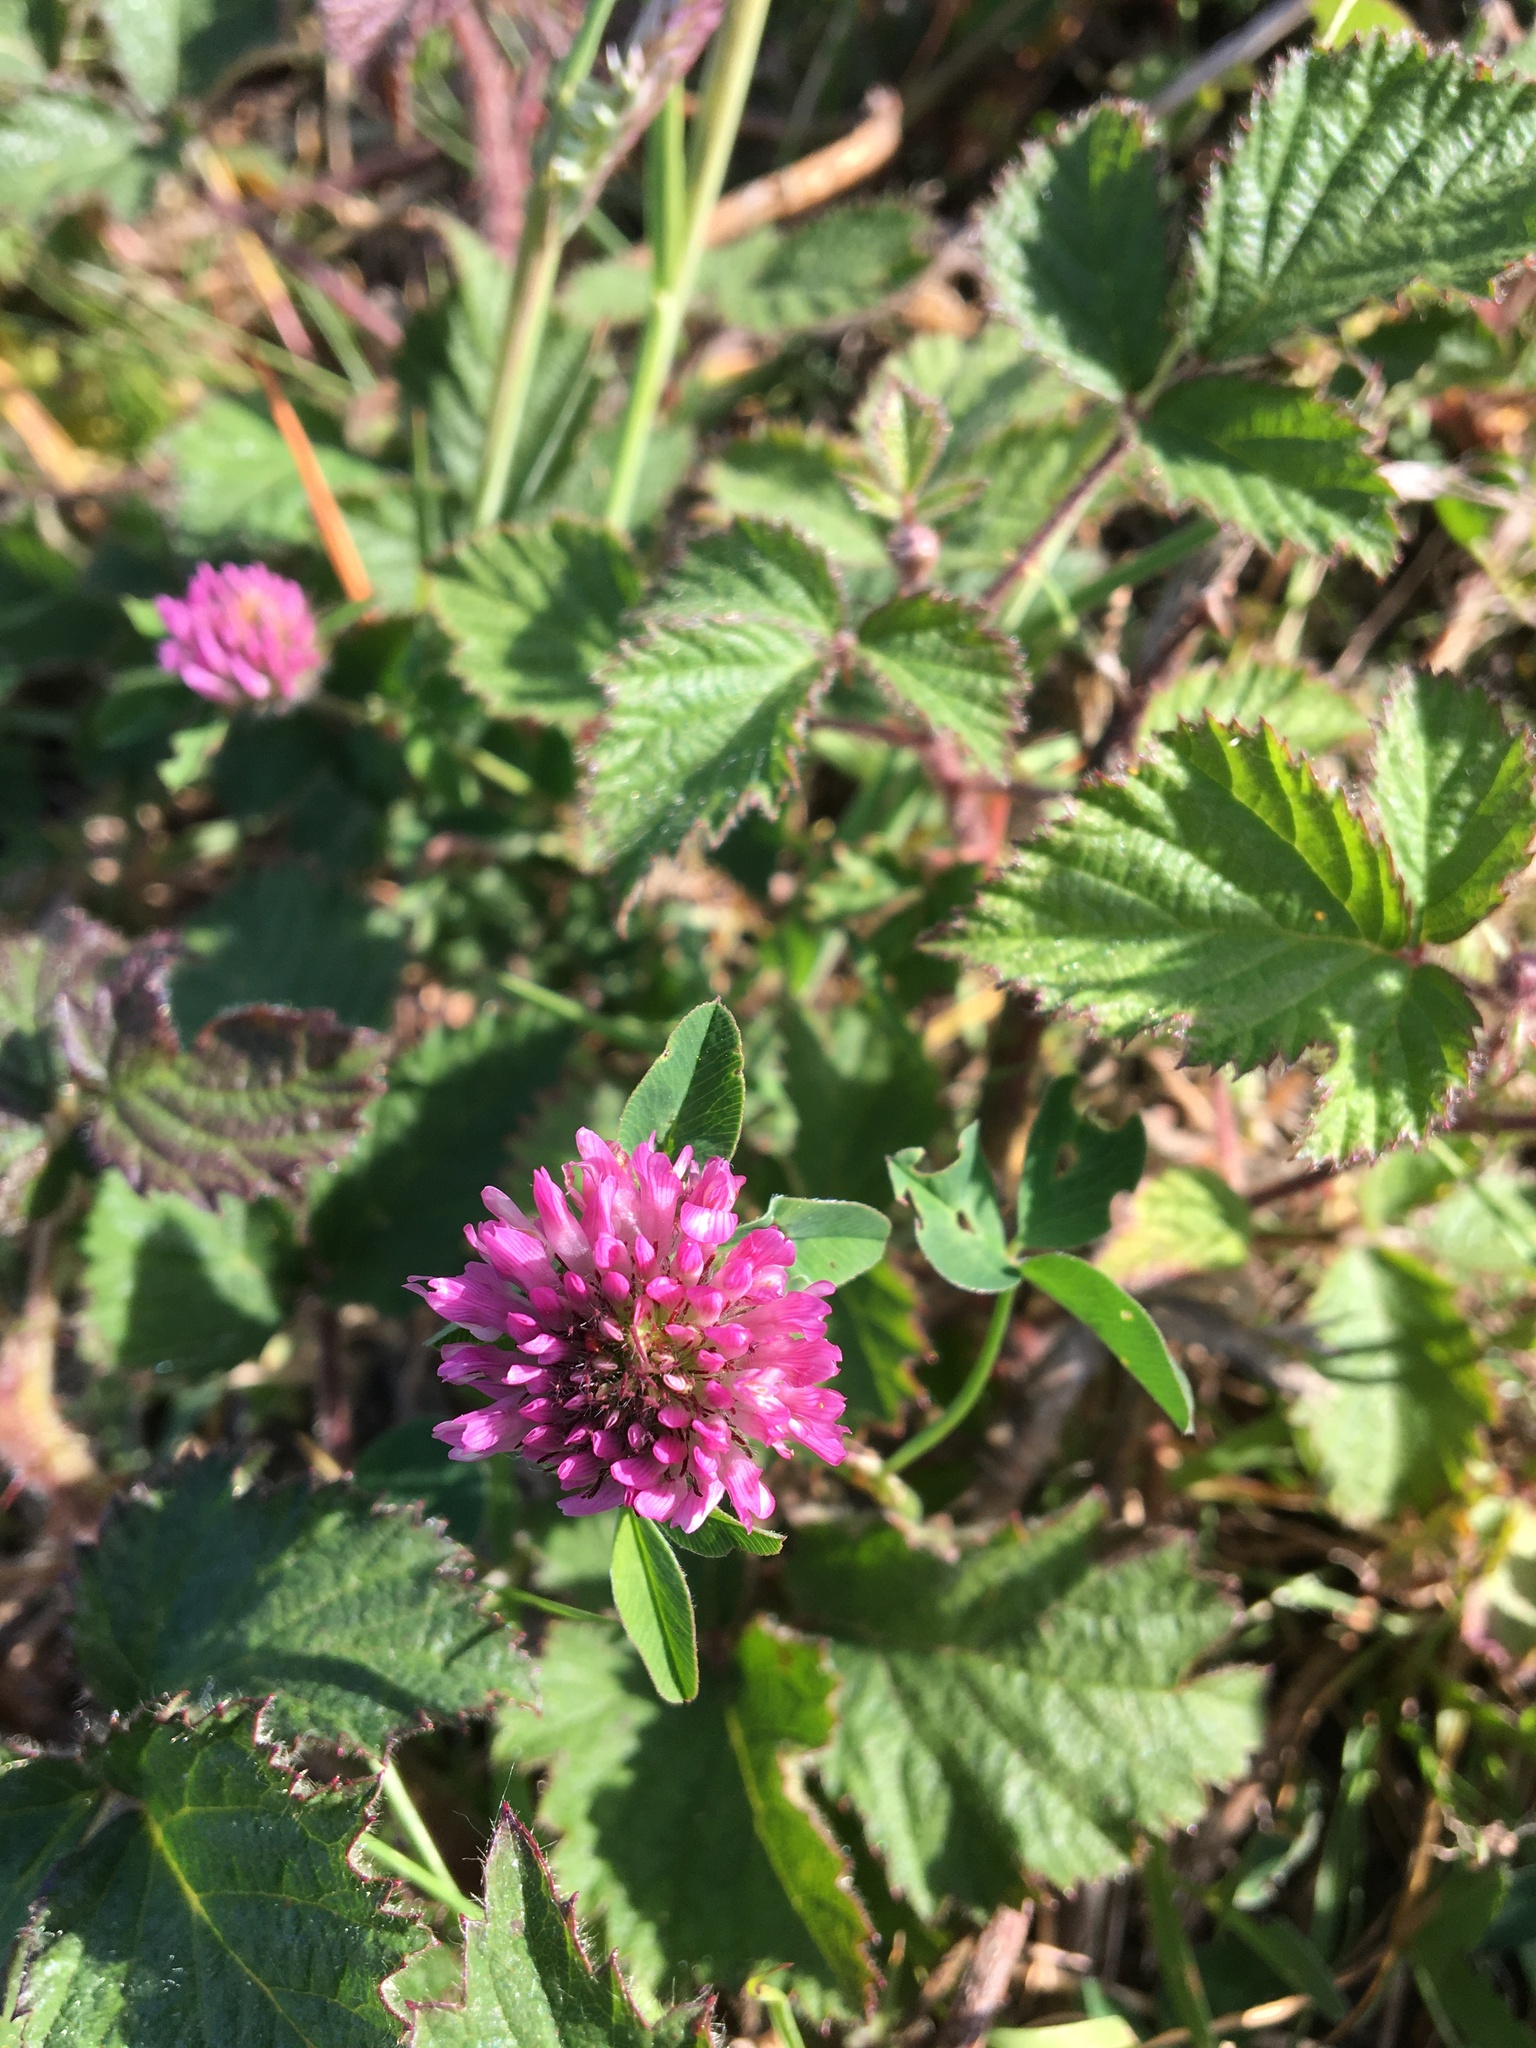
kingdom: Plantae
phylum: Tracheophyta
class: Magnoliopsida
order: Fabales
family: Fabaceae
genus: Trifolium
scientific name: Trifolium pratense
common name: Red clover
